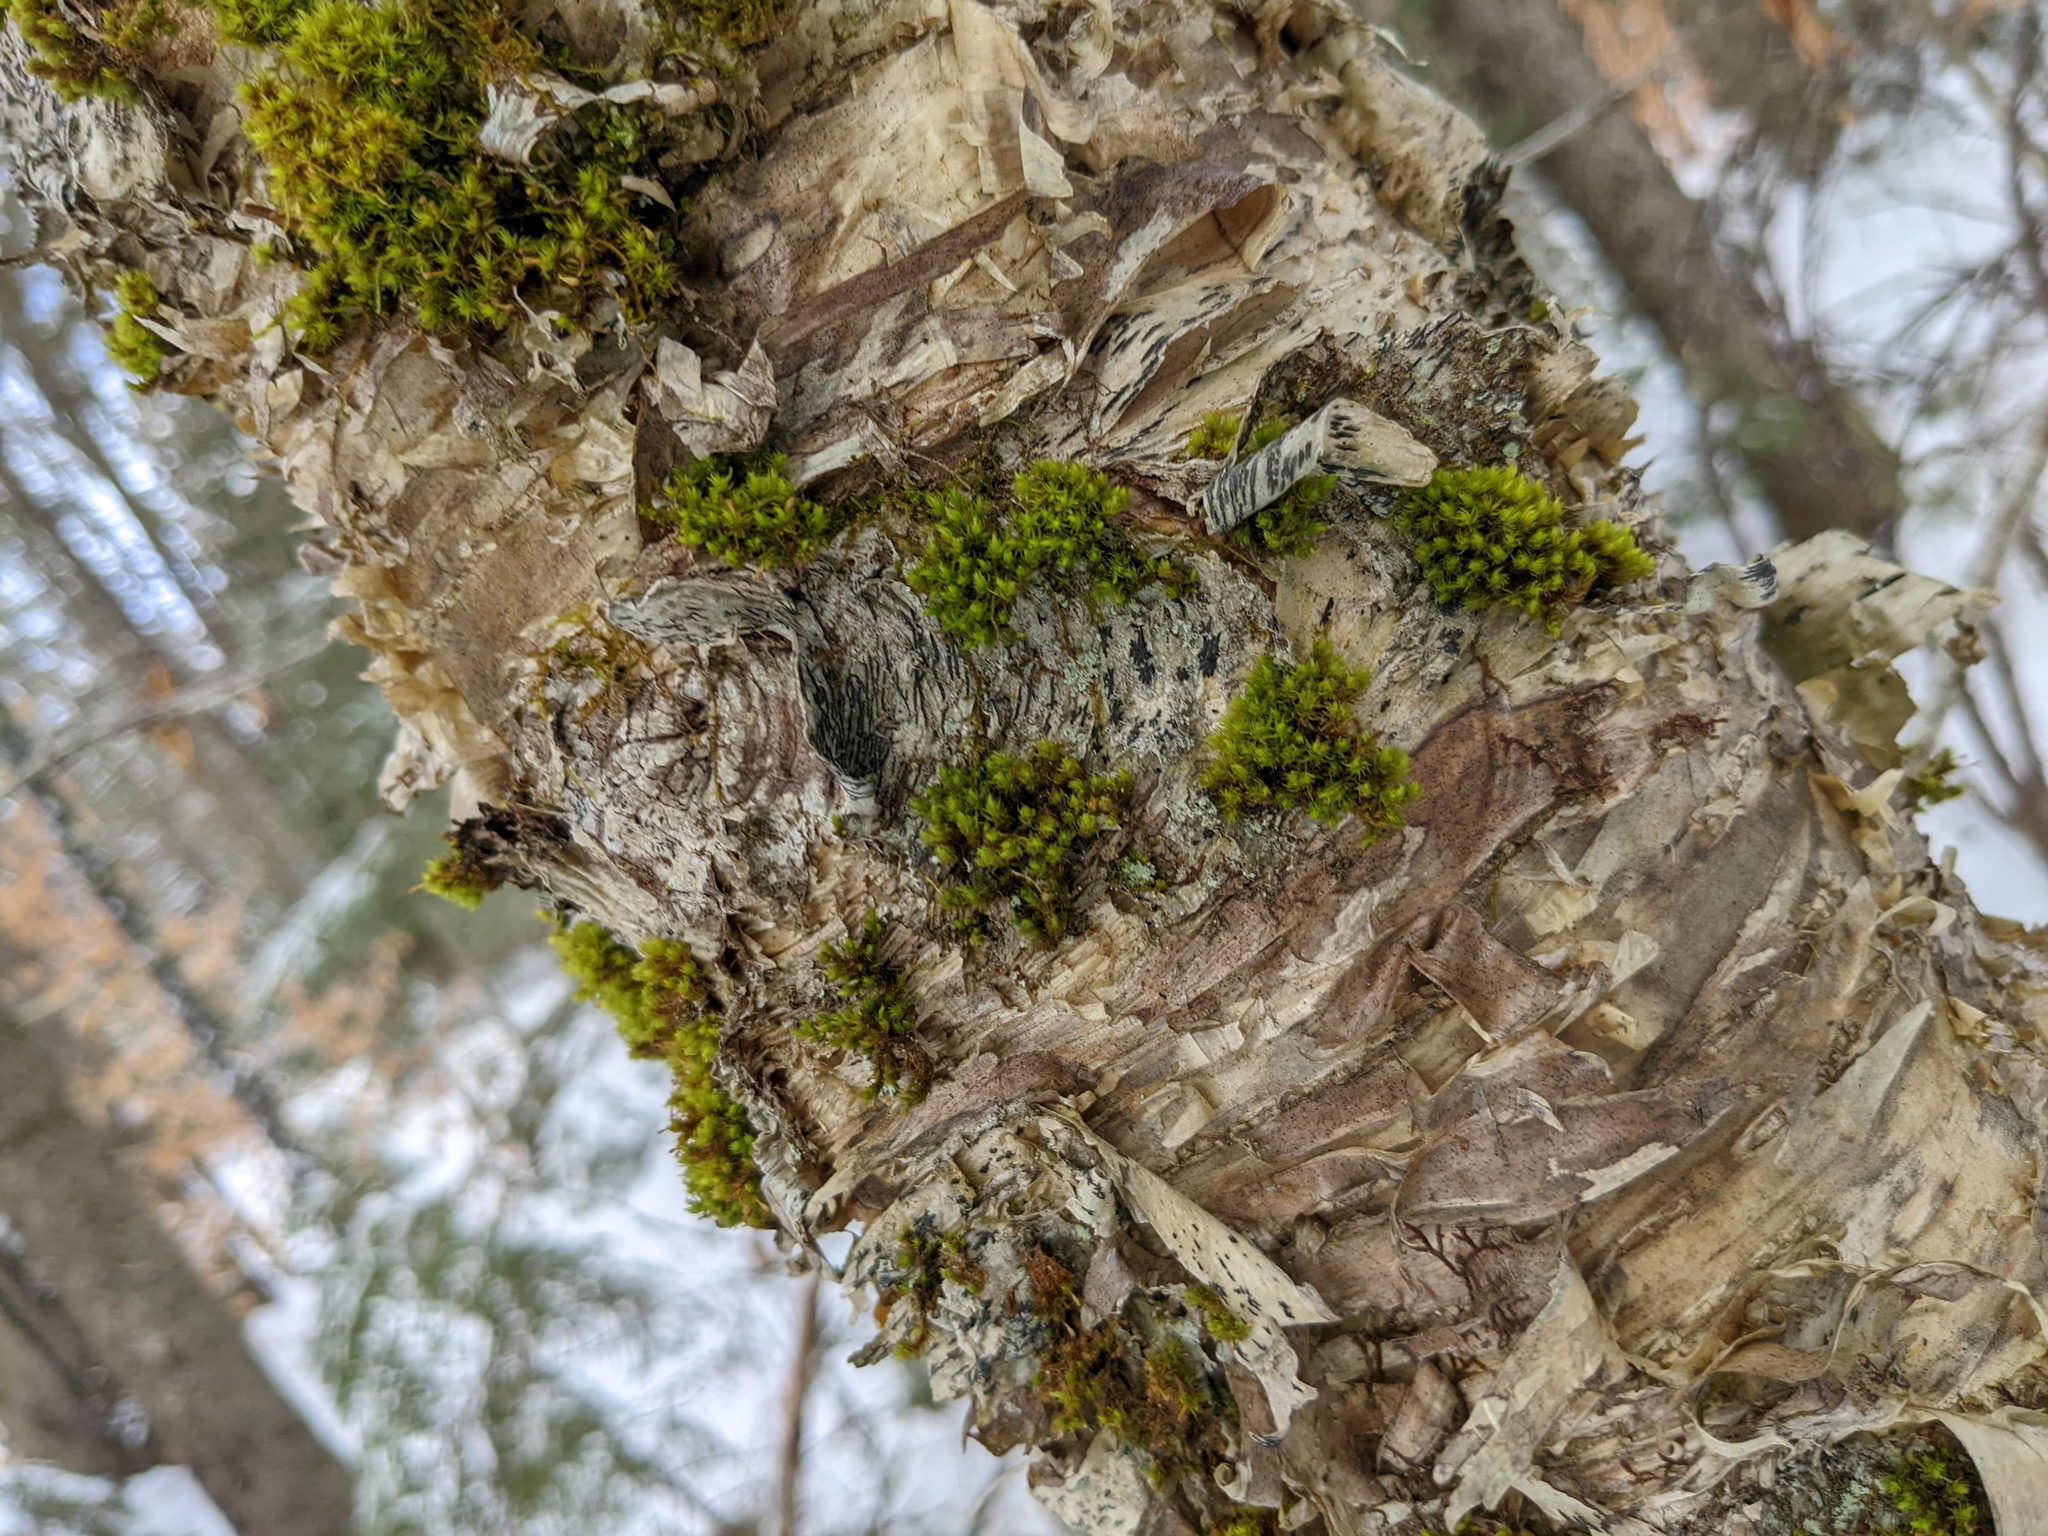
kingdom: Plantae
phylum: Bryophyta
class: Bryopsida
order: Orthotrichales
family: Orthotrichaceae
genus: Ulota
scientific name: Ulota crispa
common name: Crisped pincushion moss
